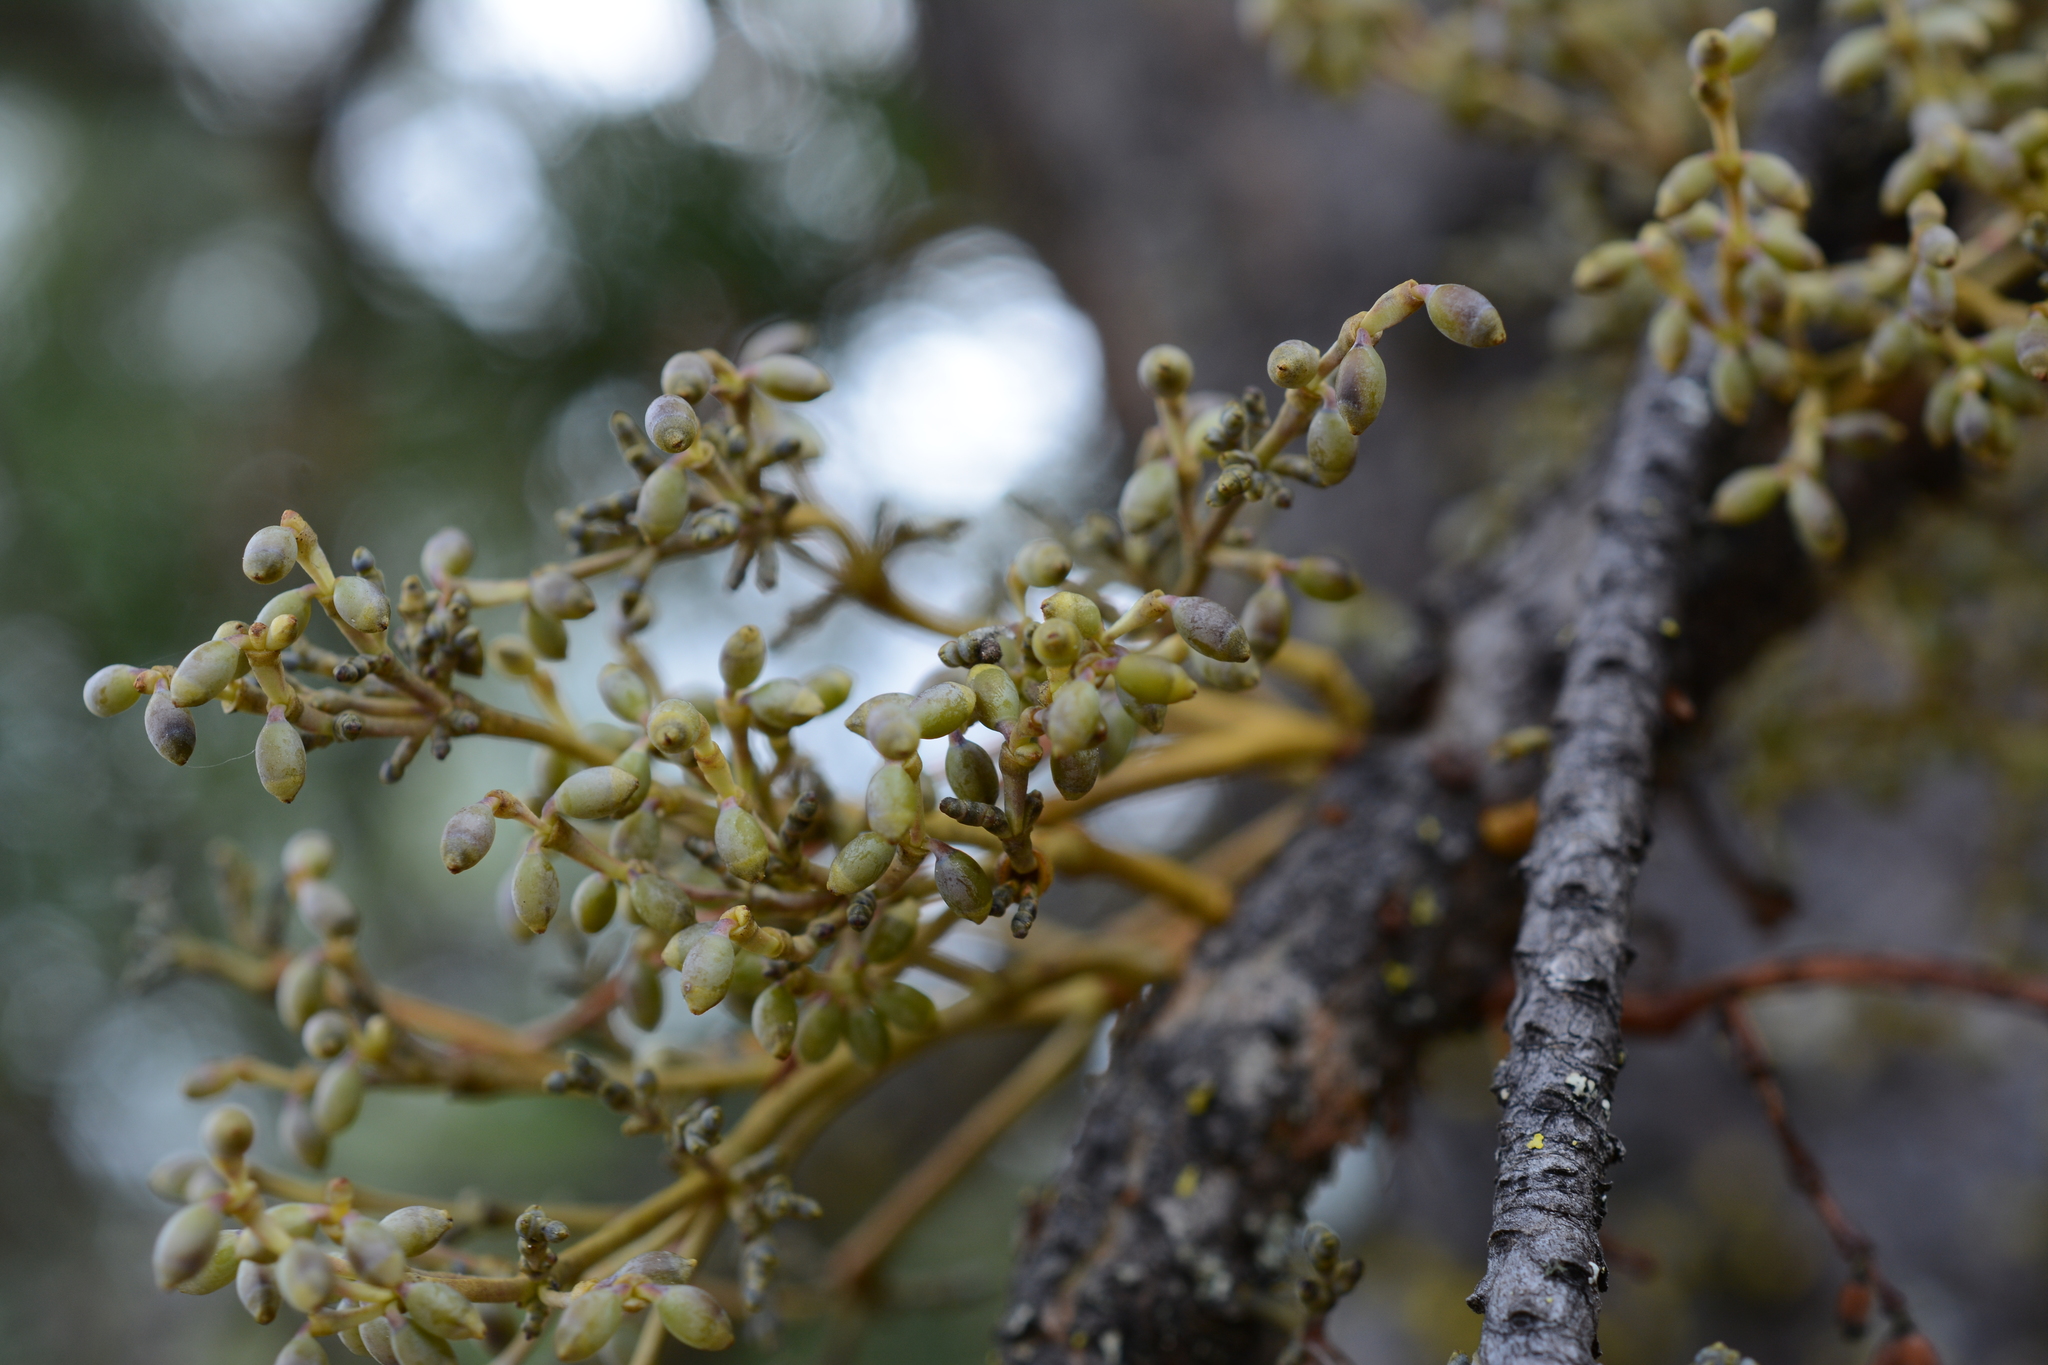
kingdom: Plantae
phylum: Tracheophyta
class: Magnoliopsida
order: Santalales
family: Viscaceae
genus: Arceuthobium
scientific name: Arceuthobium americanum
